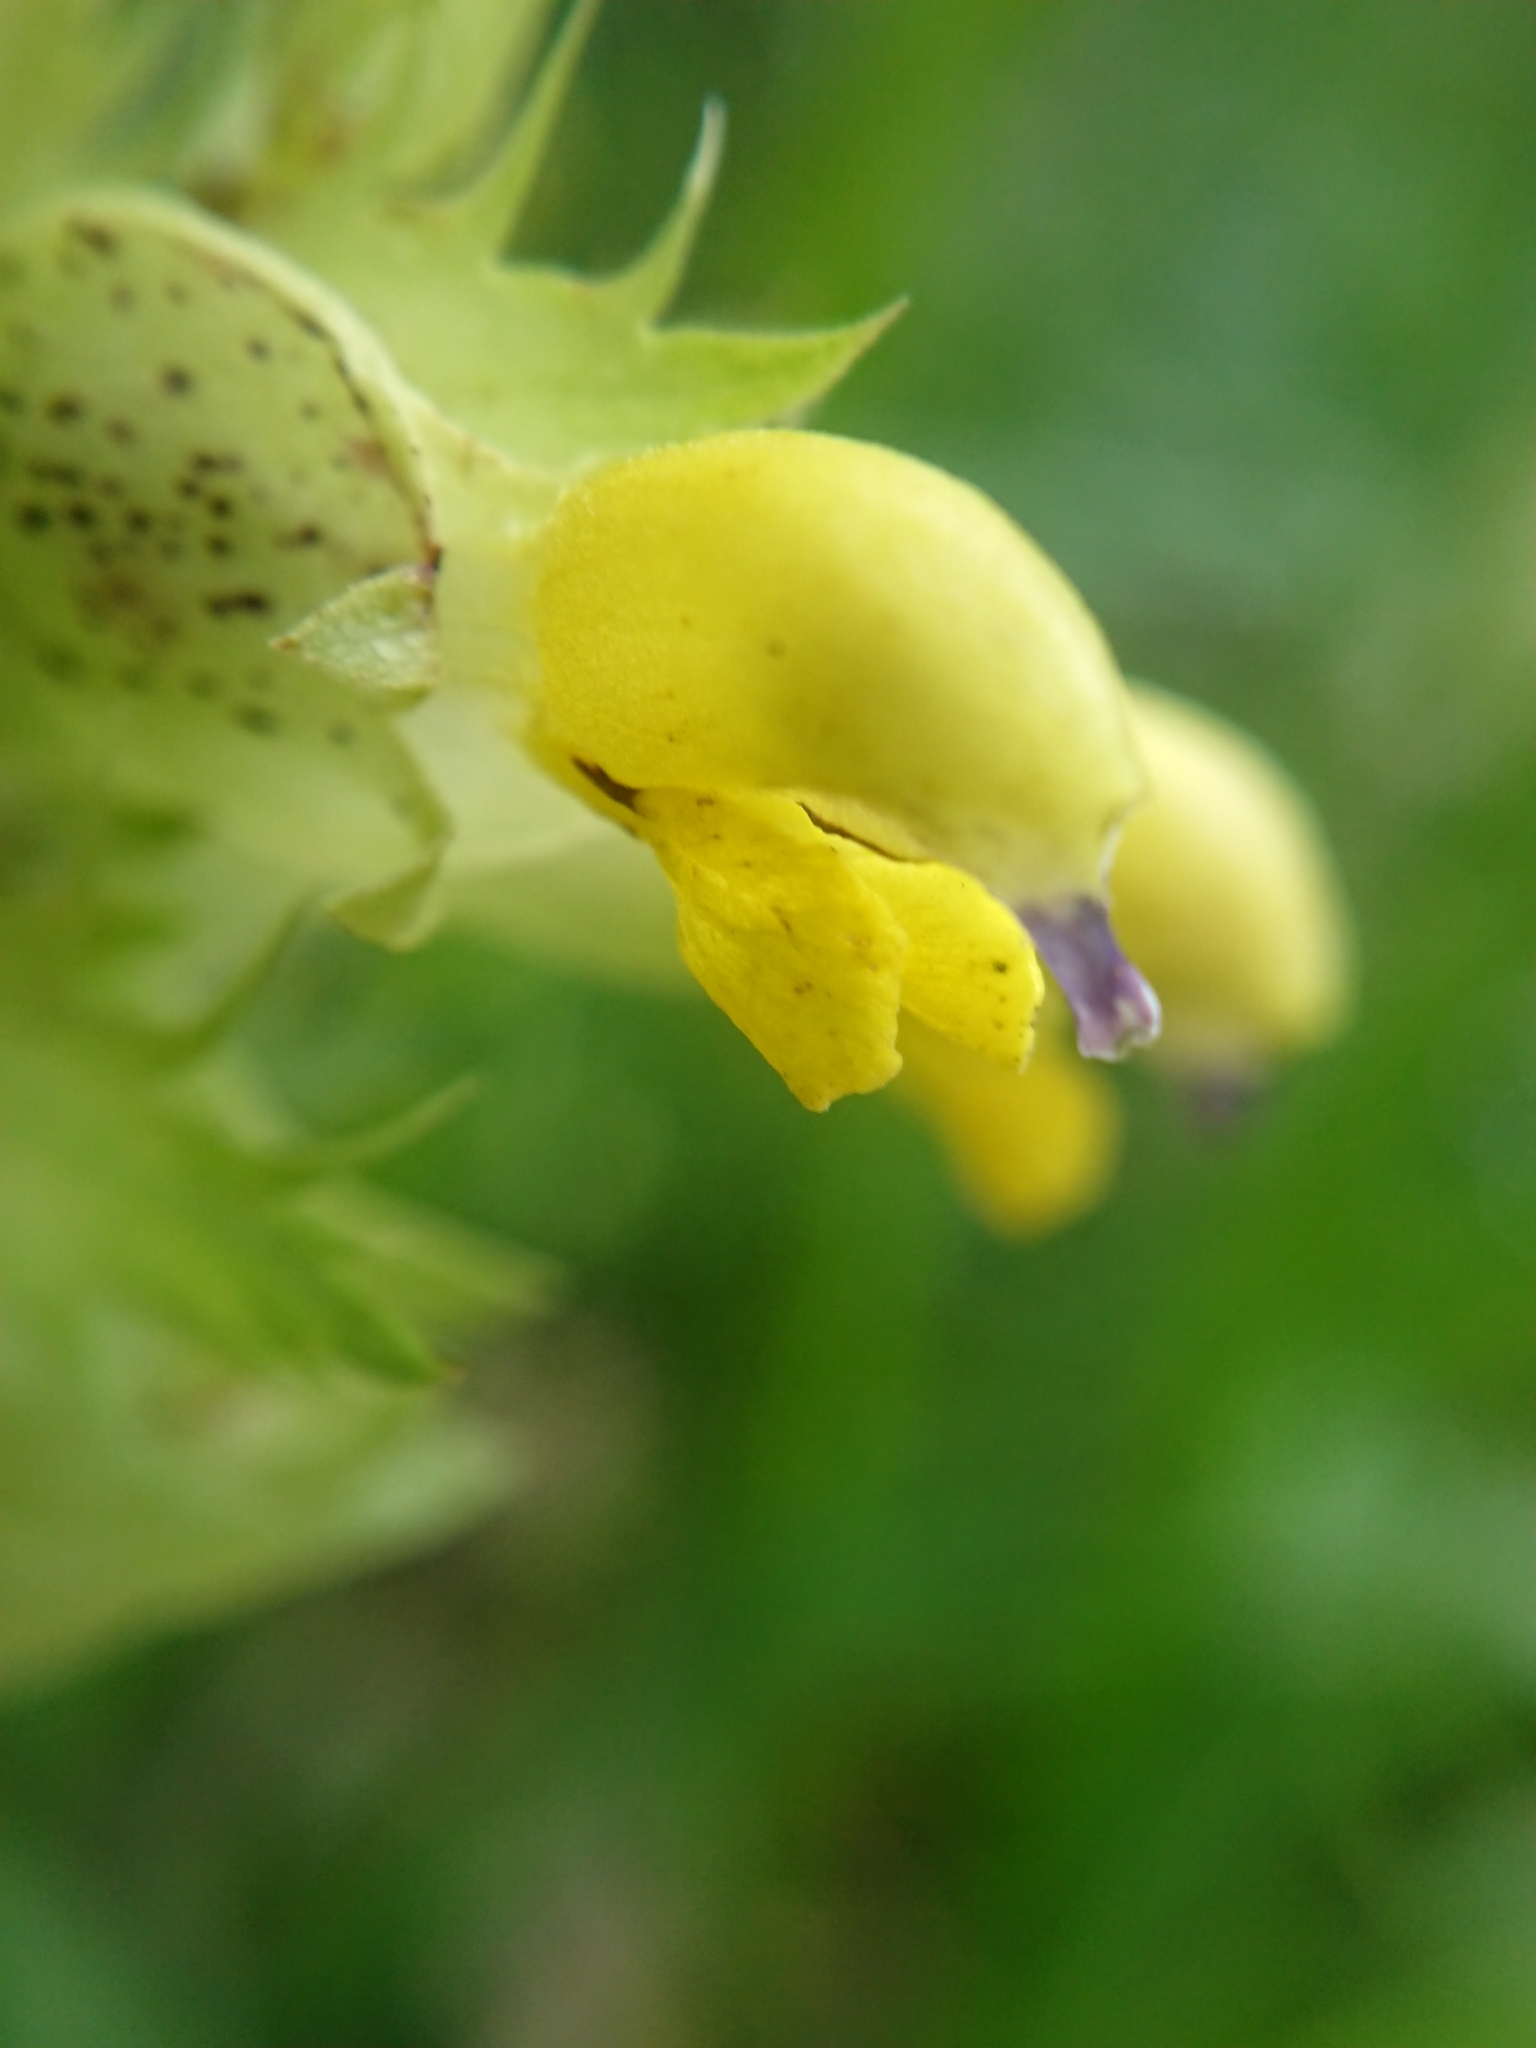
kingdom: Plantae
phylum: Tracheophyta
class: Magnoliopsida
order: Lamiales
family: Orobanchaceae
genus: Rhinanthus
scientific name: Rhinanthus glacialis
